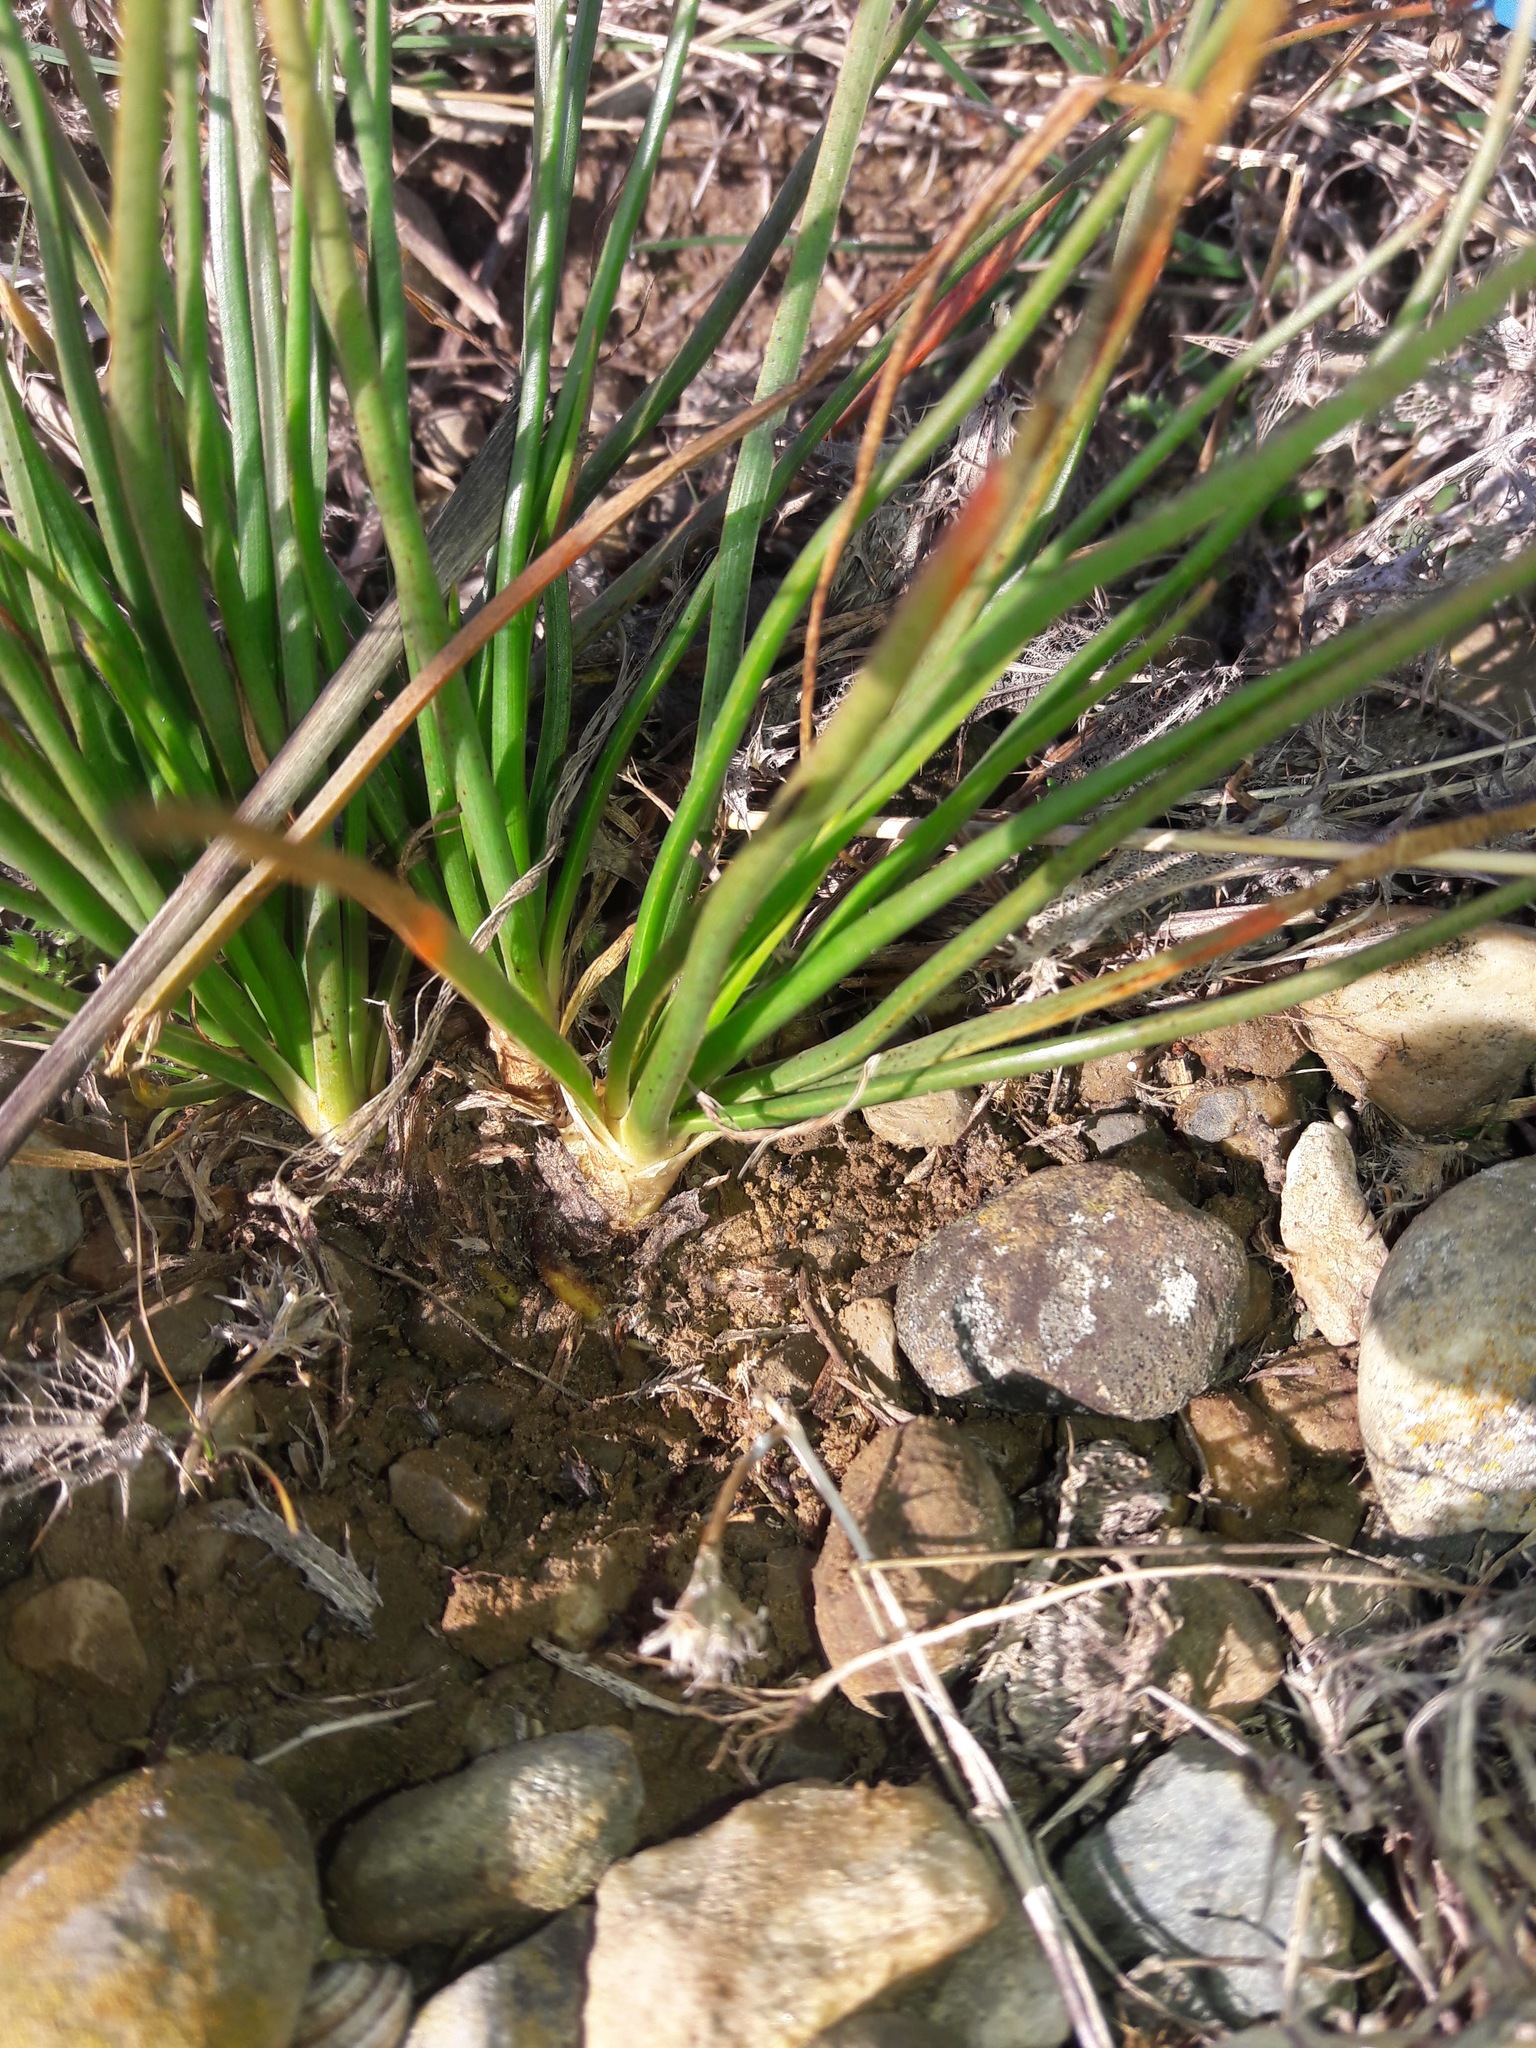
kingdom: Plantae
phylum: Tracheophyta
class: Liliopsida
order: Asparagales
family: Asphodelaceae
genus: Asphodelus
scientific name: Asphodelus ayardii
